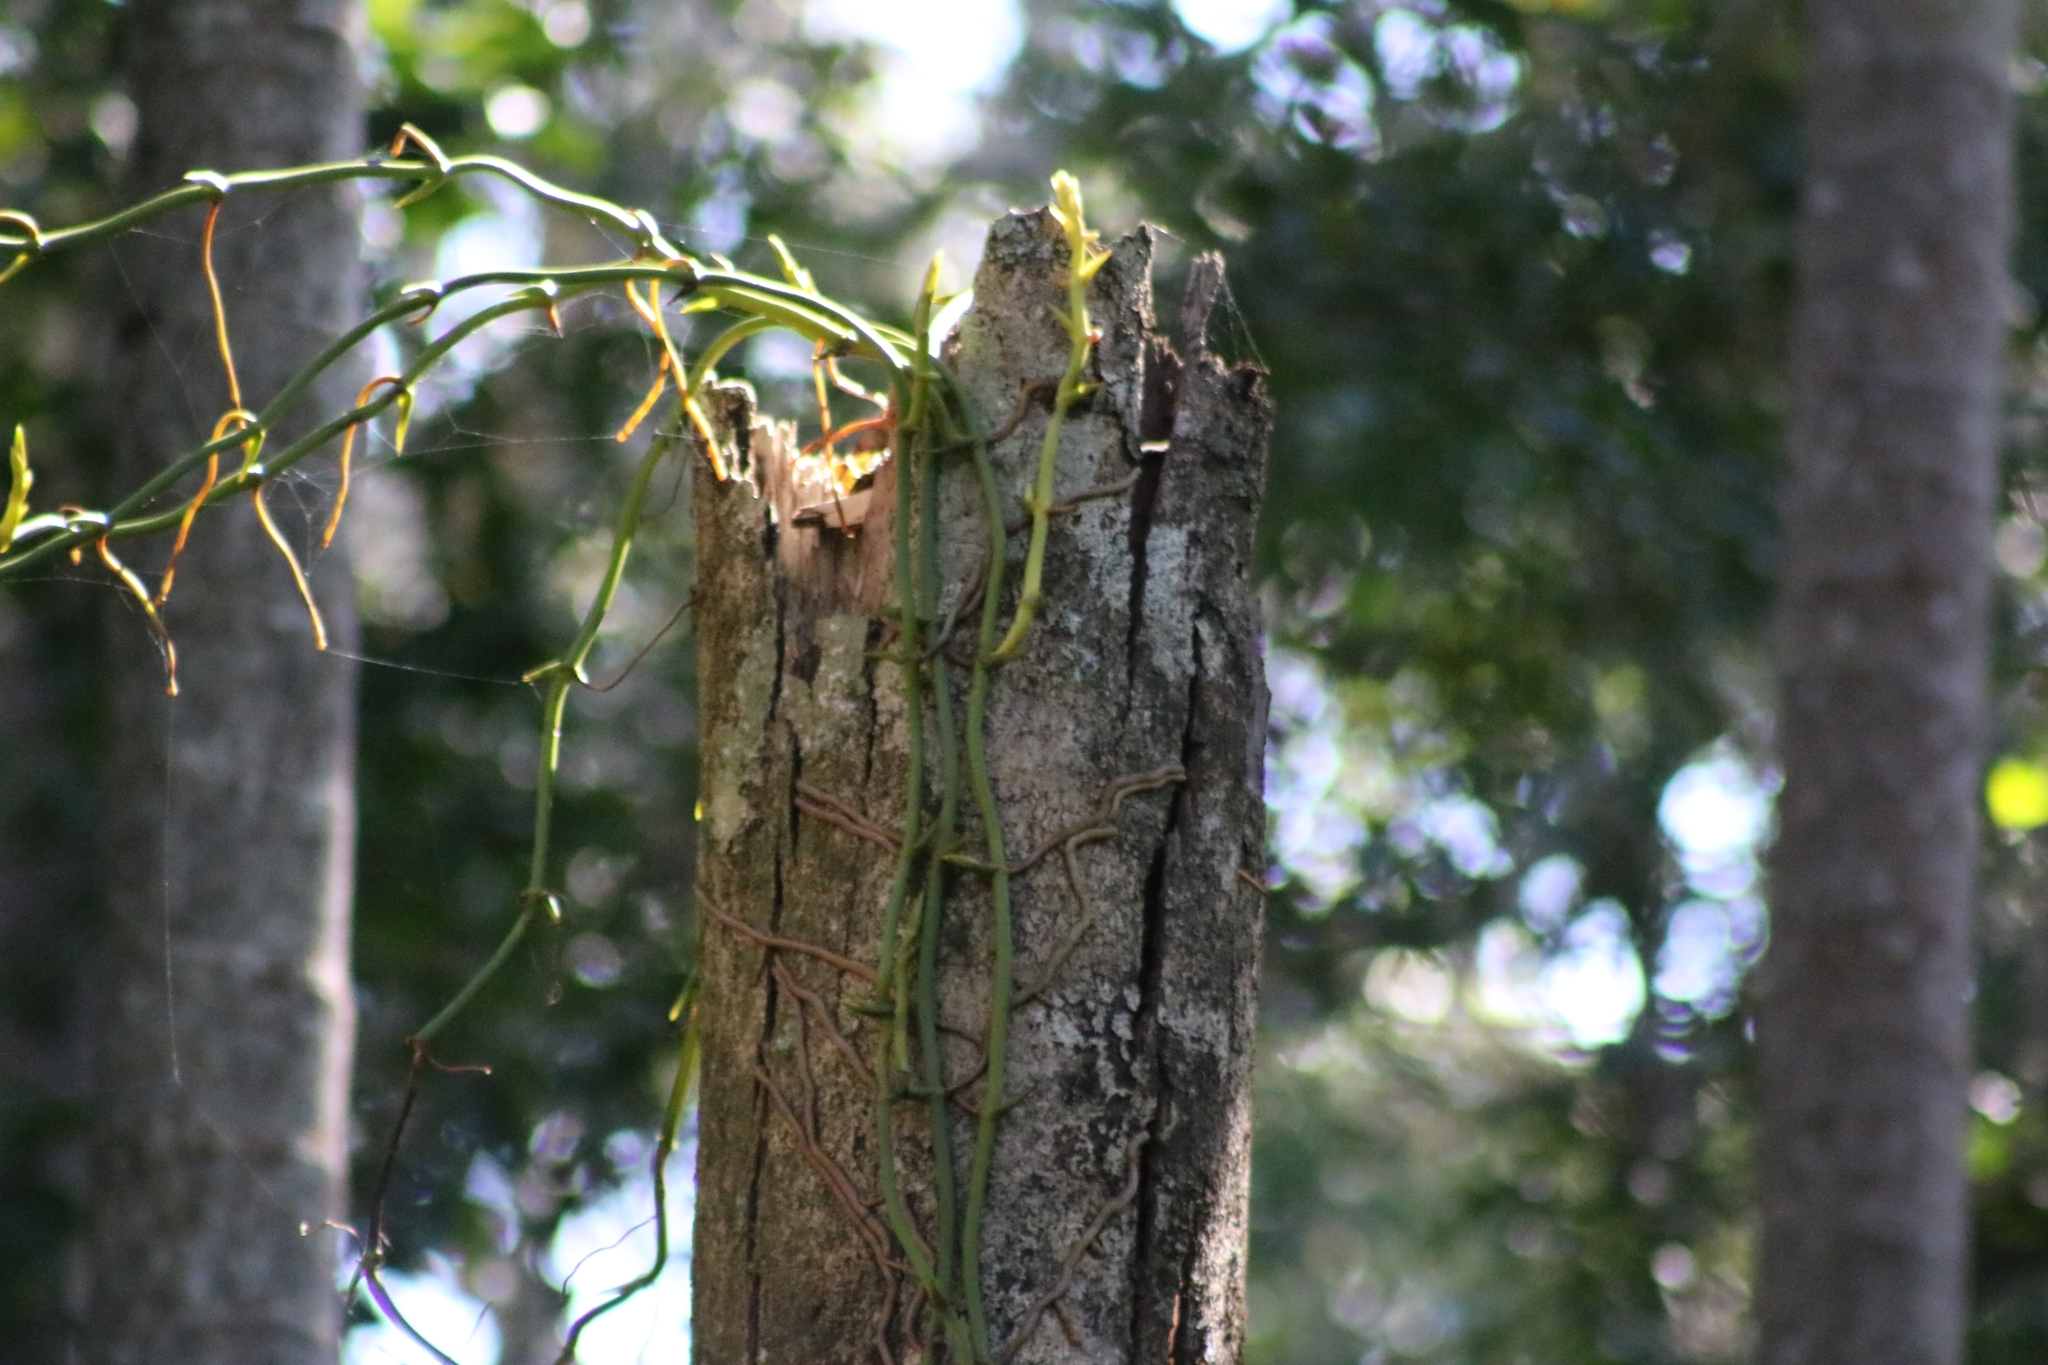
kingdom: Plantae
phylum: Tracheophyta
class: Liliopsida
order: Asparagales
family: Orchidaceae
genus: Pseudovanilla
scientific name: Pseudovanilla foliata
